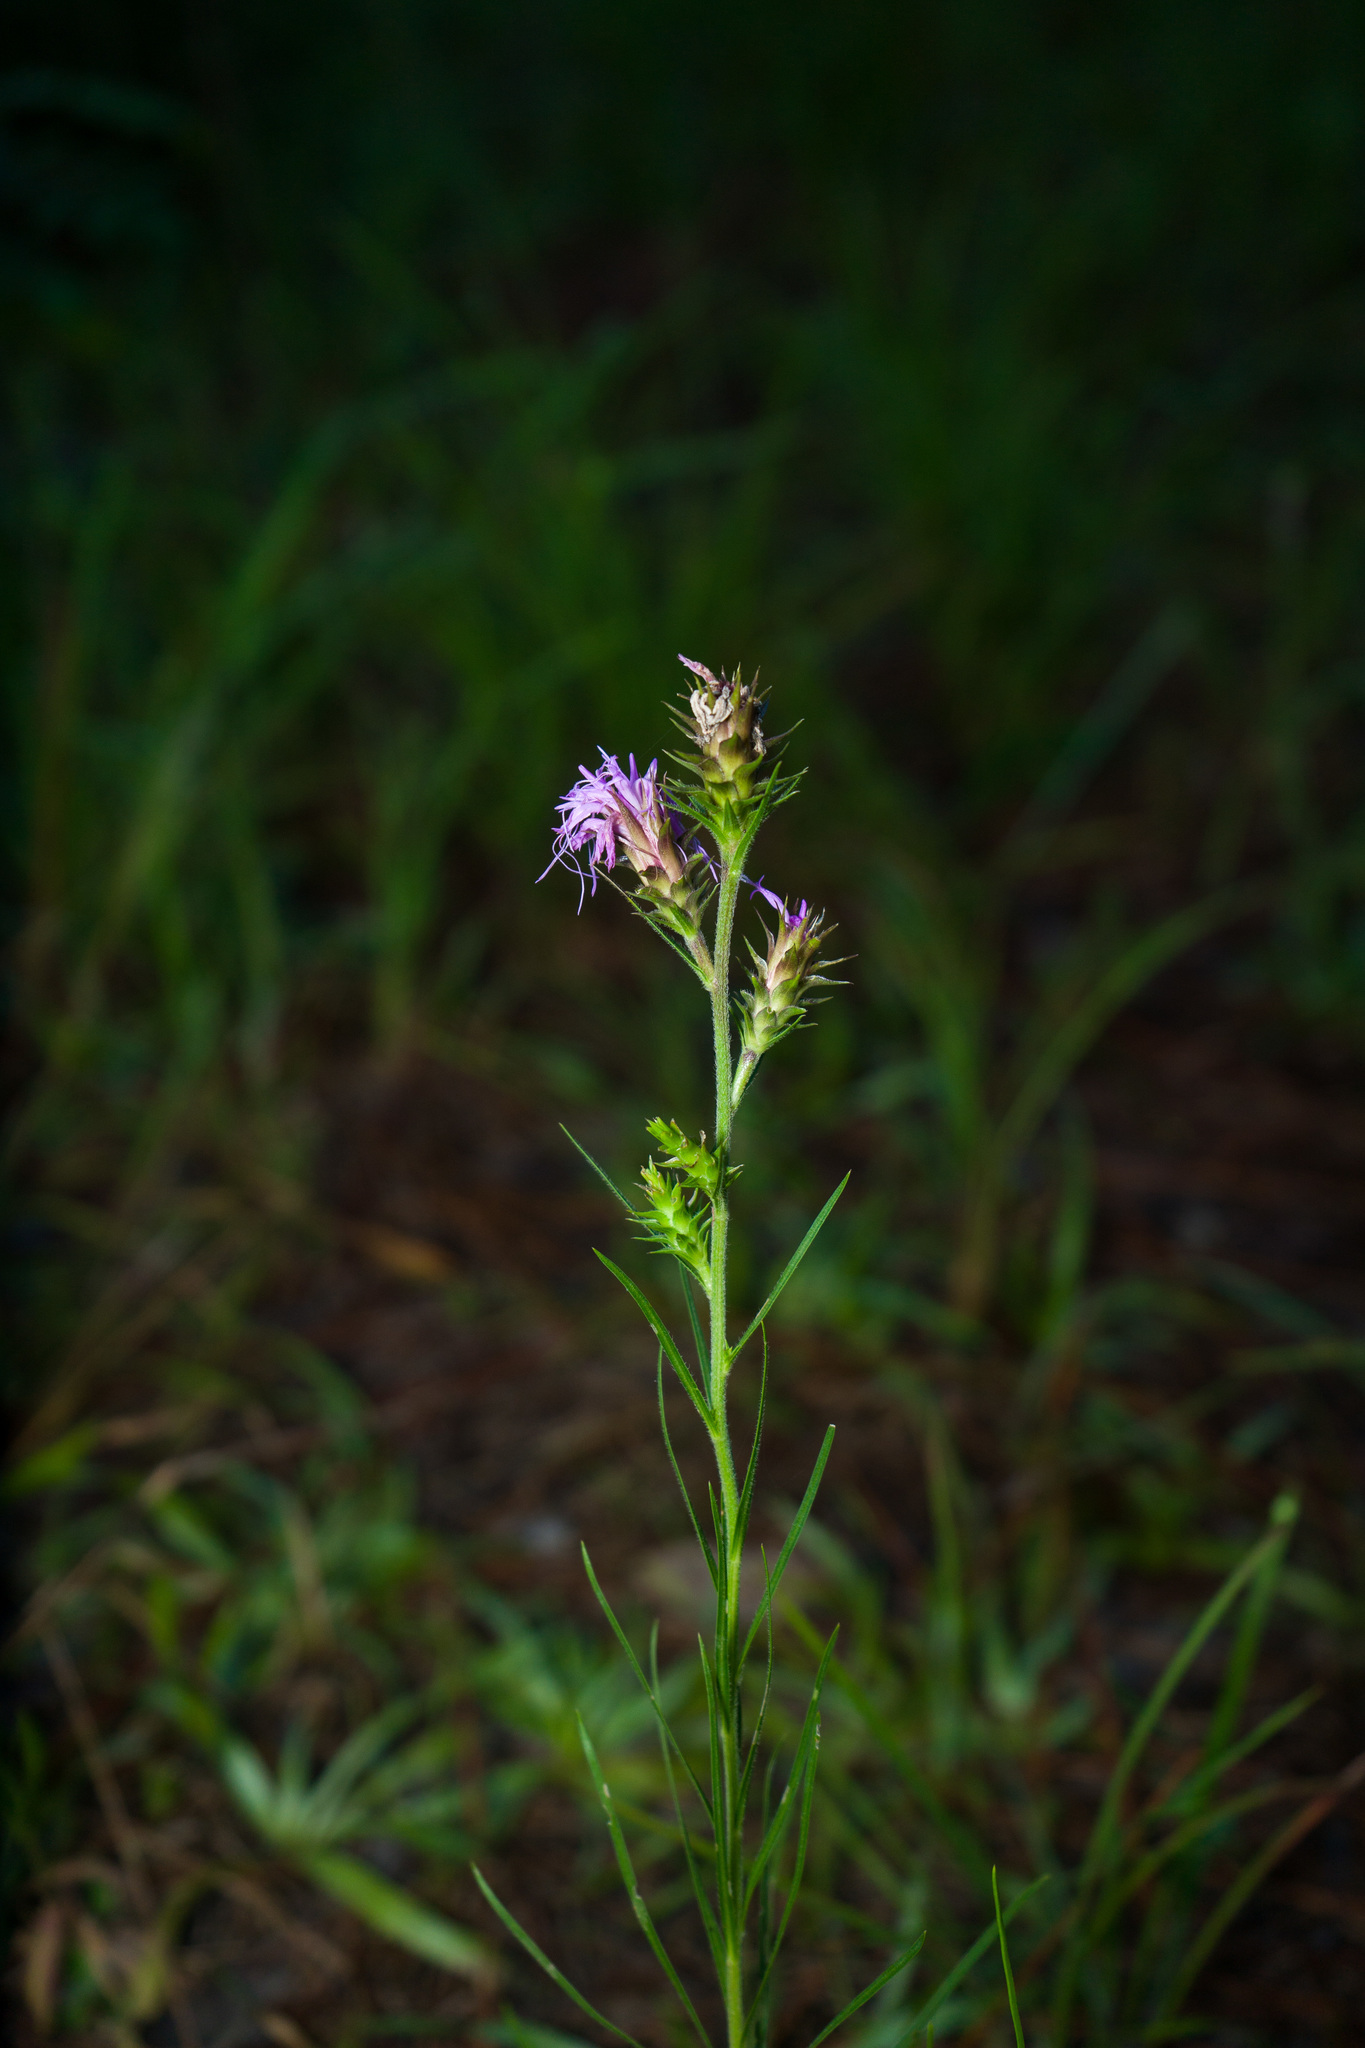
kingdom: Plantae
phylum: Tracheophyta
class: Magnoliopsida
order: Asterales
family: Asteraceae
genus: Liatris
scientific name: Liatris squarrosa
